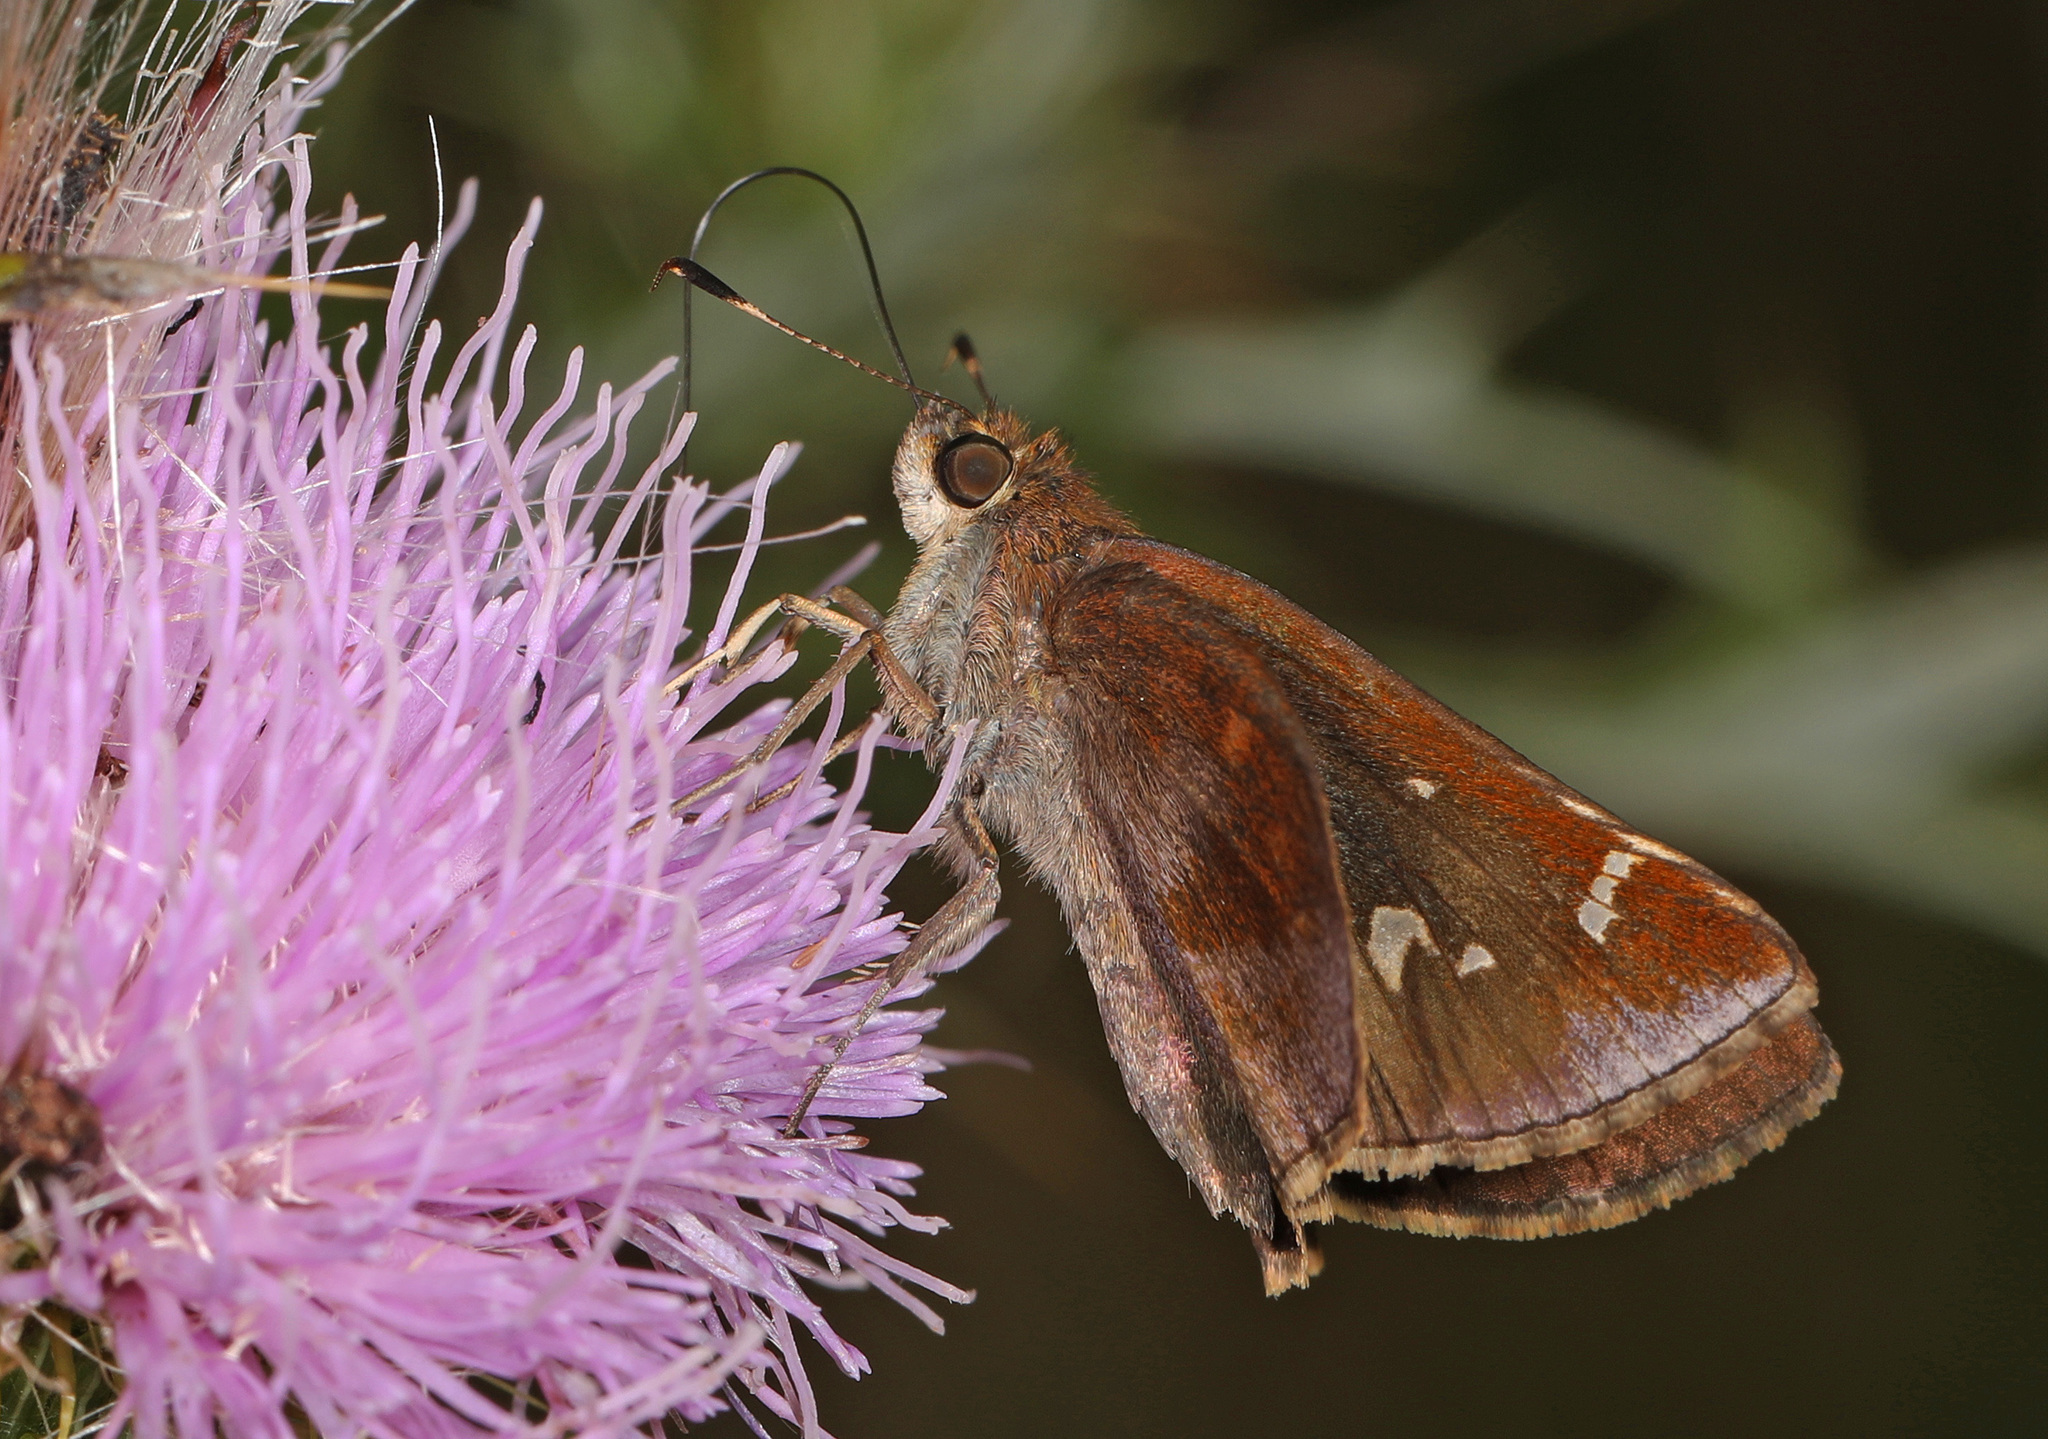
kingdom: Animalia
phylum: Arthropoda
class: Insecta
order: Lepidoptera
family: Hesperiidae
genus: Lerema
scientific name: Lerema accius
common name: Clouded skipper
